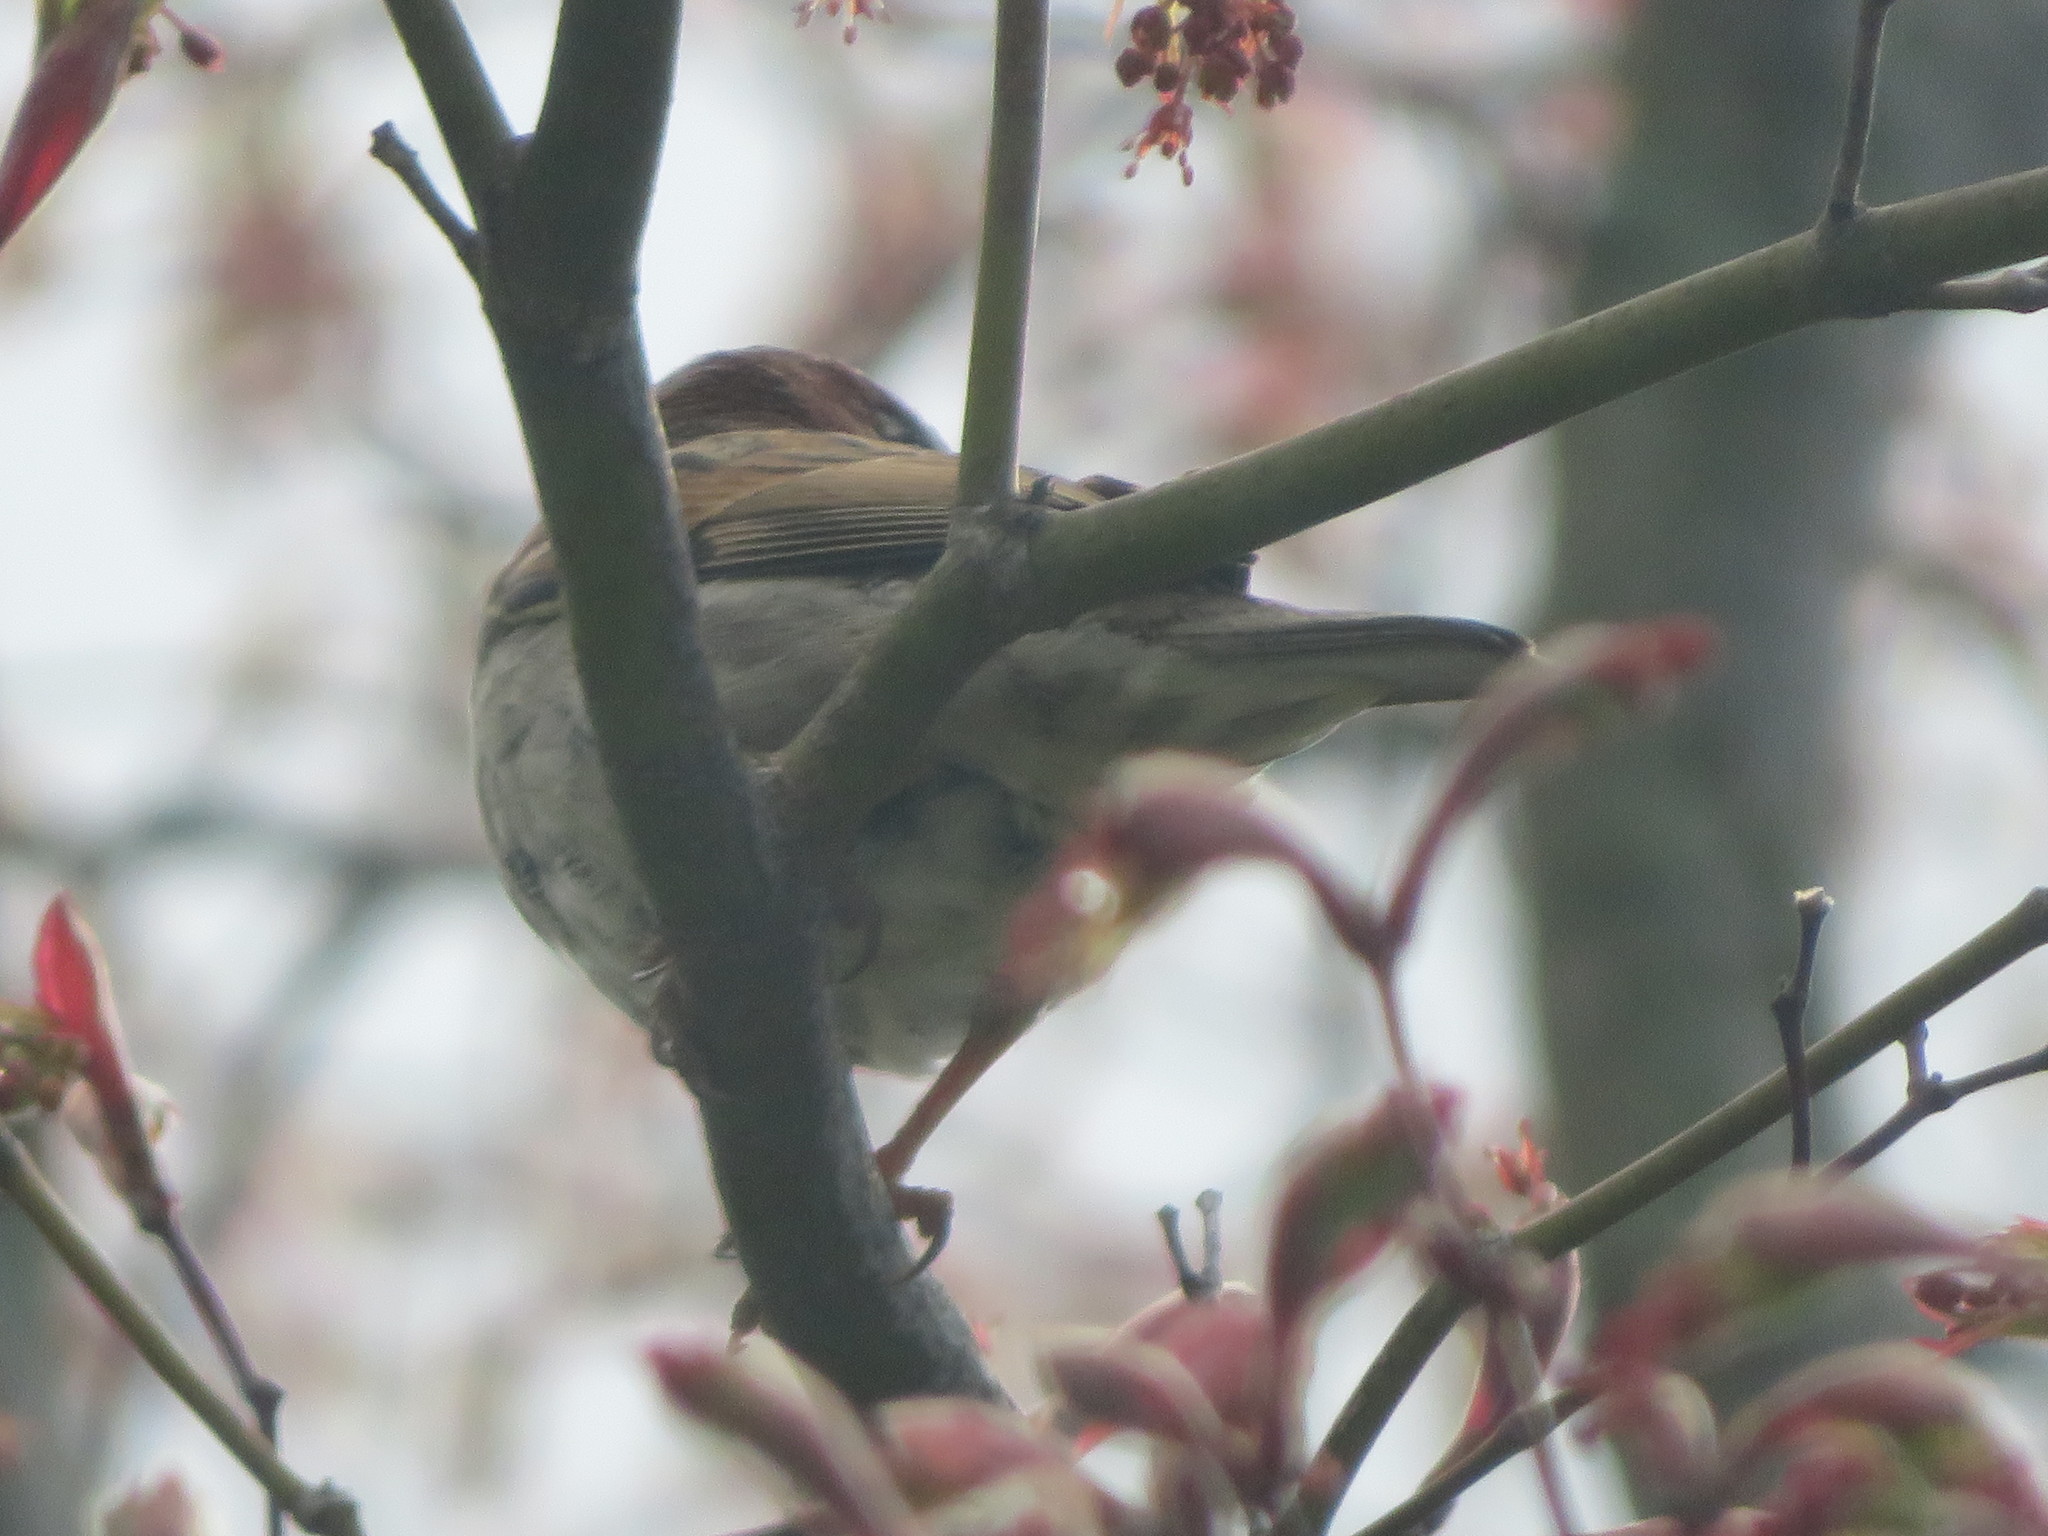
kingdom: Animalia
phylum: Chordata
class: Aves
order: Passeriformes
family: Passeridae
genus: Passer
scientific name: Passer domesticus
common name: House sparrow
